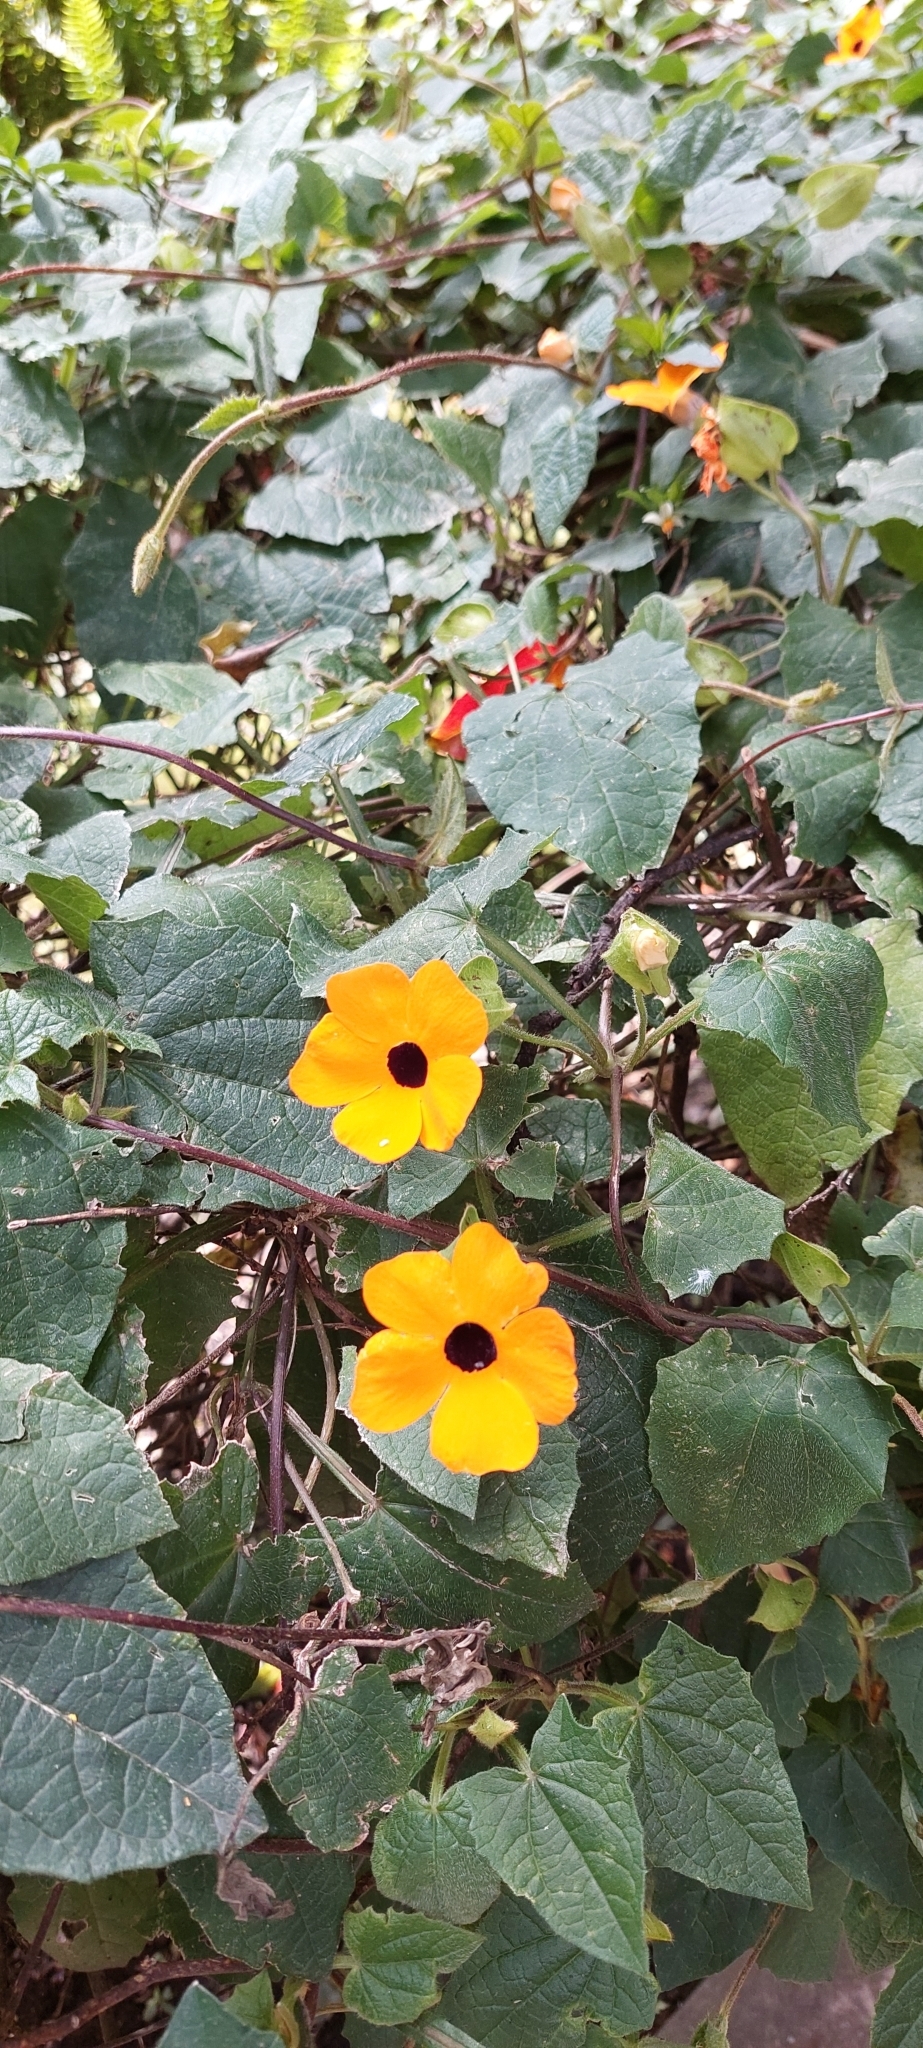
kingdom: Plantae
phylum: Tracheophyta
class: Magnoliopsida
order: Lamiales
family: Acanthaceae
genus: Thunbergia
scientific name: Thunbergia alata
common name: Blackeyed susan vine
